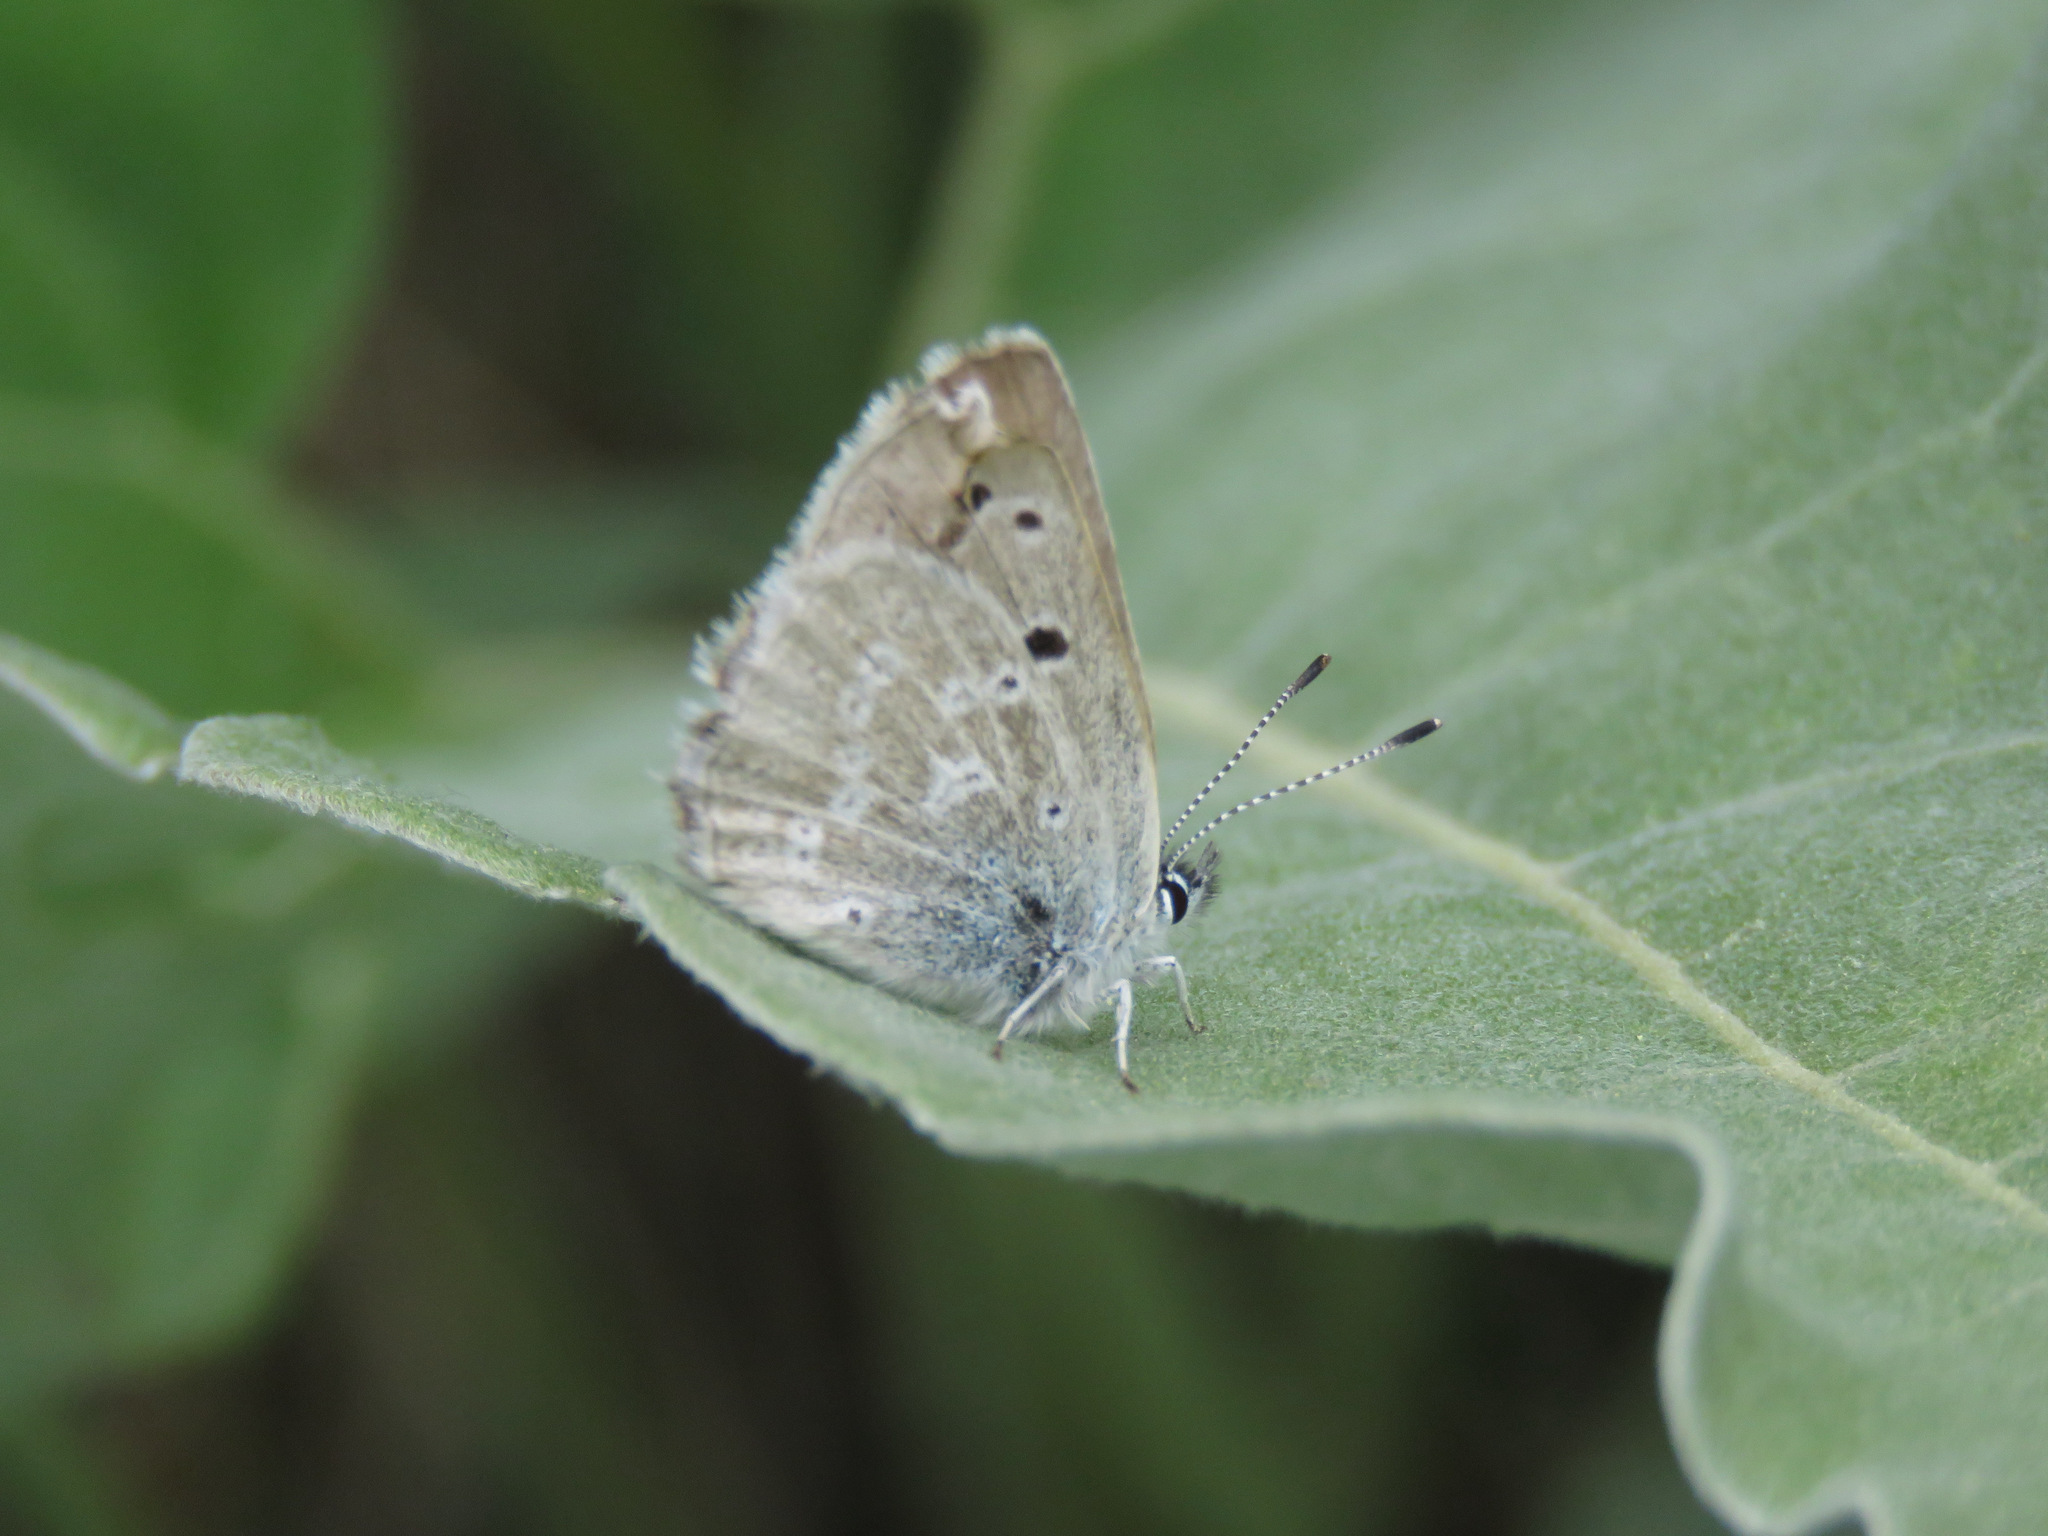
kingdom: Animalia
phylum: Arthropoda
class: Insecta
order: Lepidoptera
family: Lycaenidae
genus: Icaricia
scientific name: Icaricia icarioides
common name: Boisduval's blue
